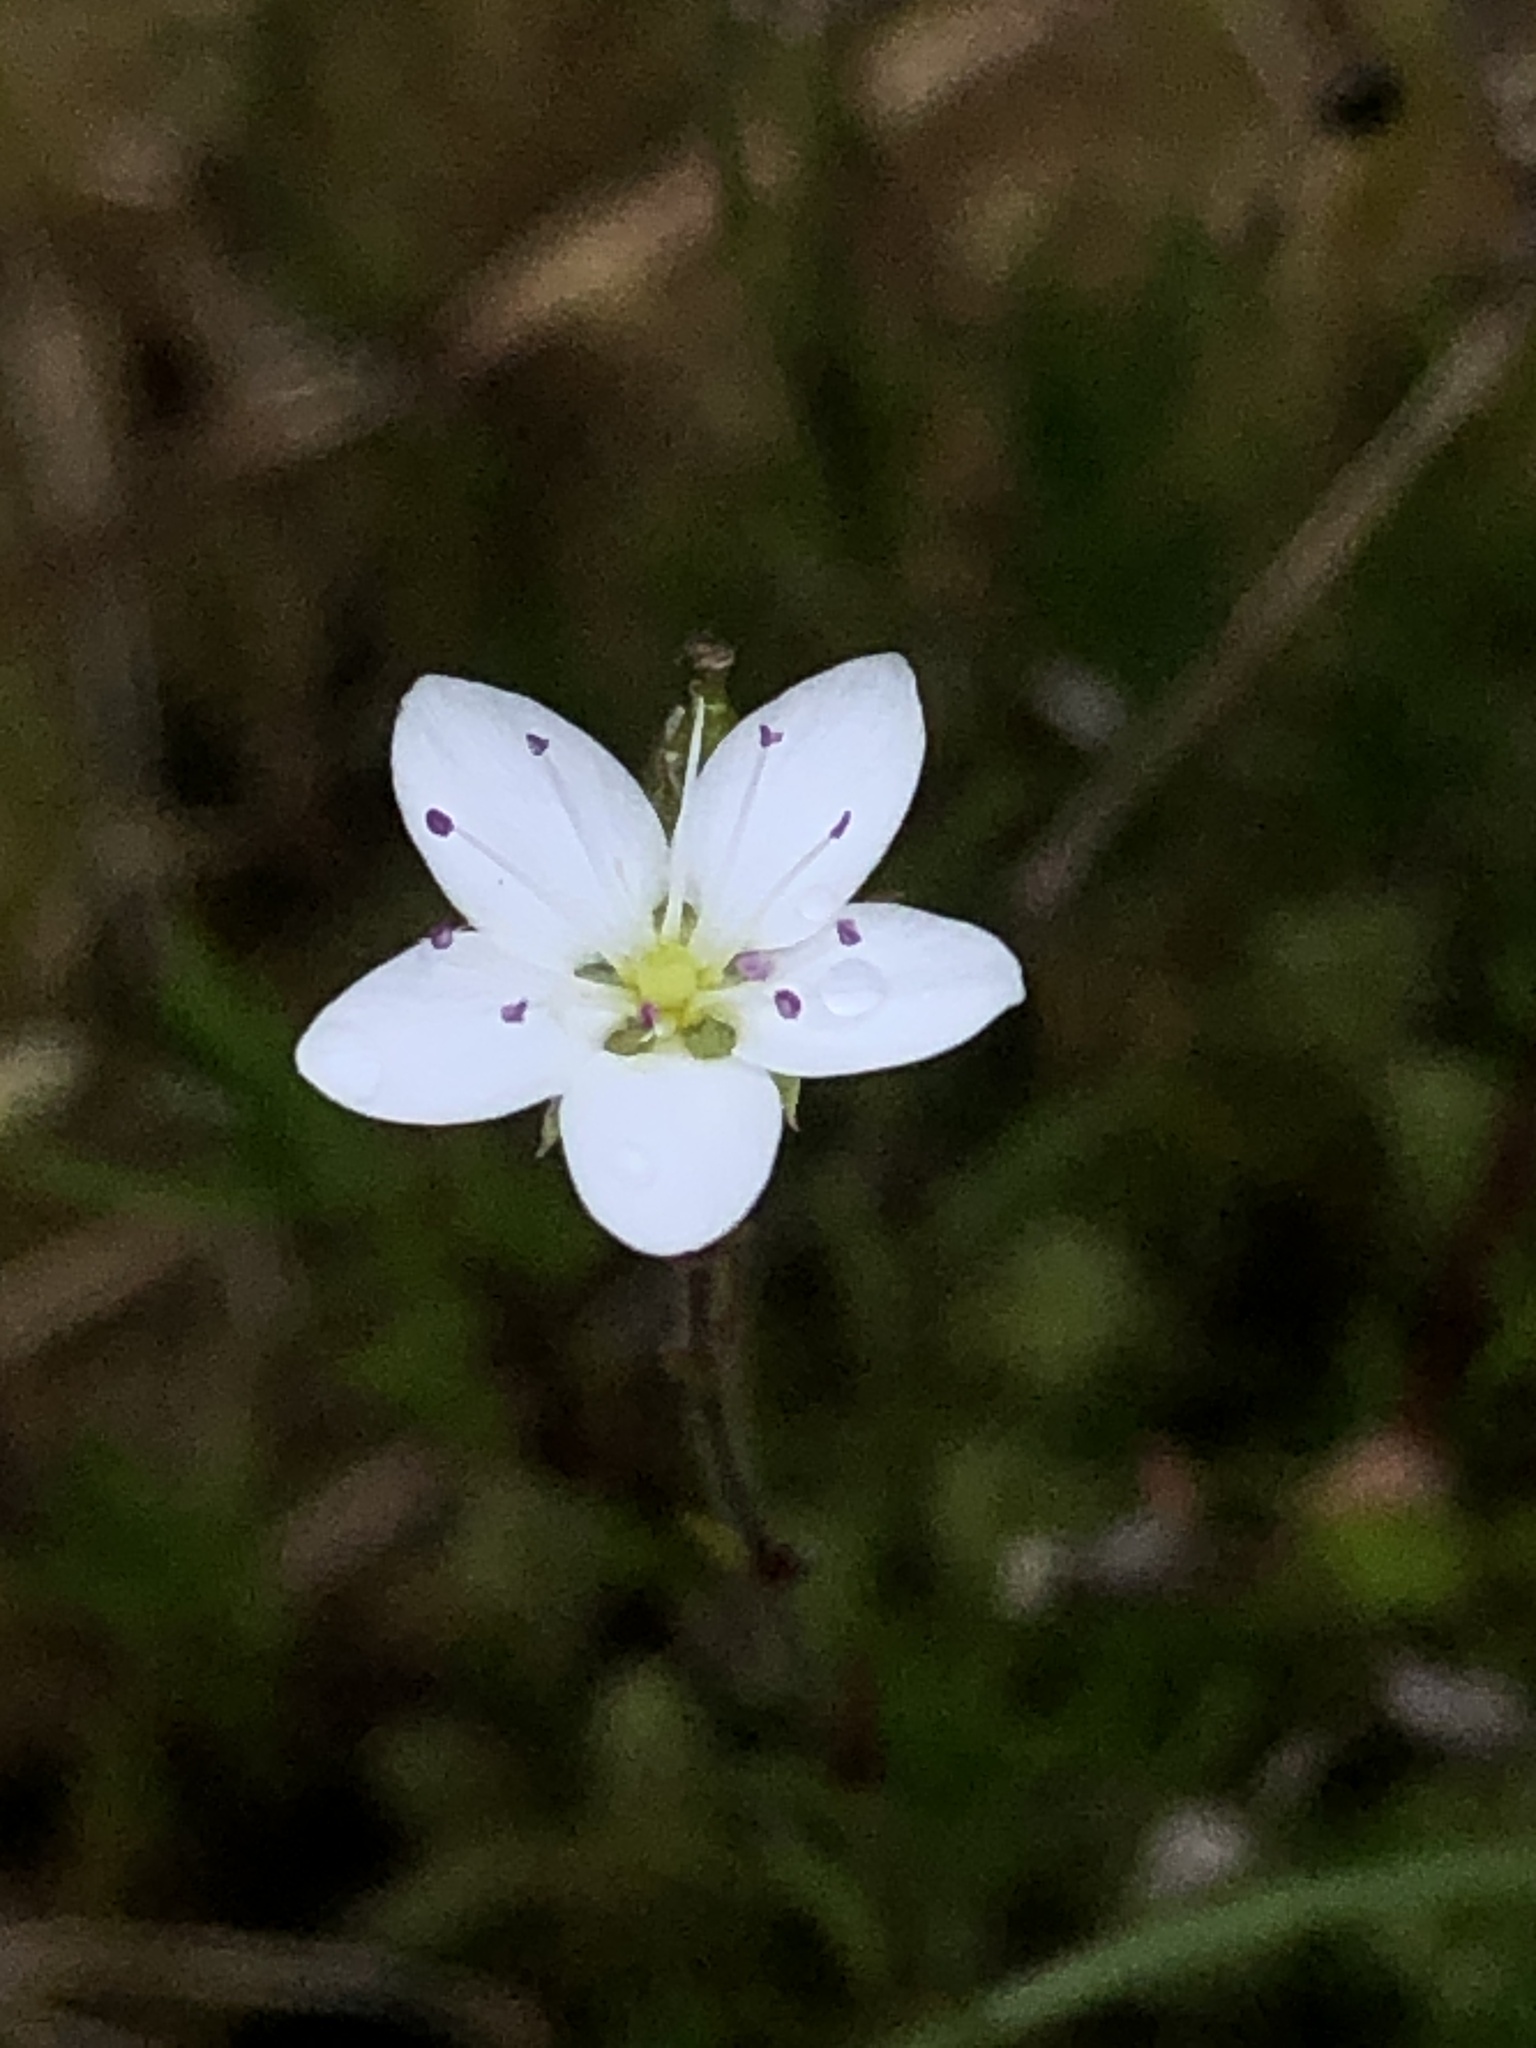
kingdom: Plantae
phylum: Tracheophyta
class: Magnoliopsida
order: Caryophyllales
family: Caryophyllaceae
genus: Sabulina
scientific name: Sabulina verna
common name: Spring sandwort
